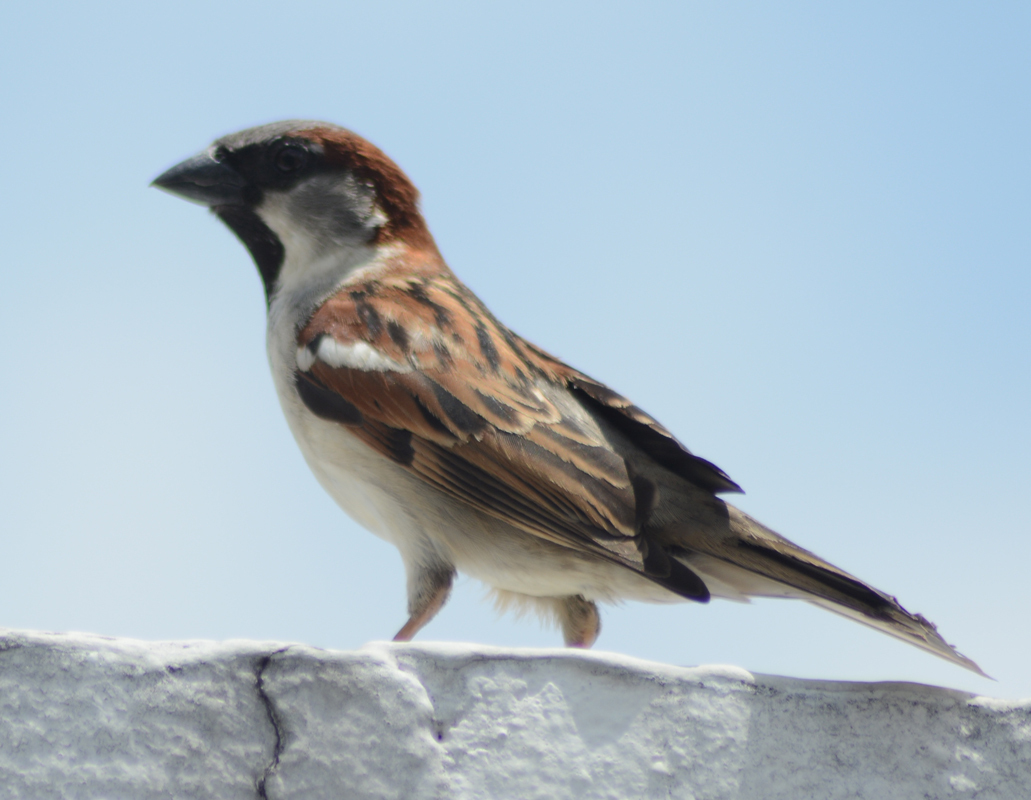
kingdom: Animalia
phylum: Chordata
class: Aves
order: Passeriformes
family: Passeridae
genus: Passer
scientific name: Passer domesticus
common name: House sparrow
